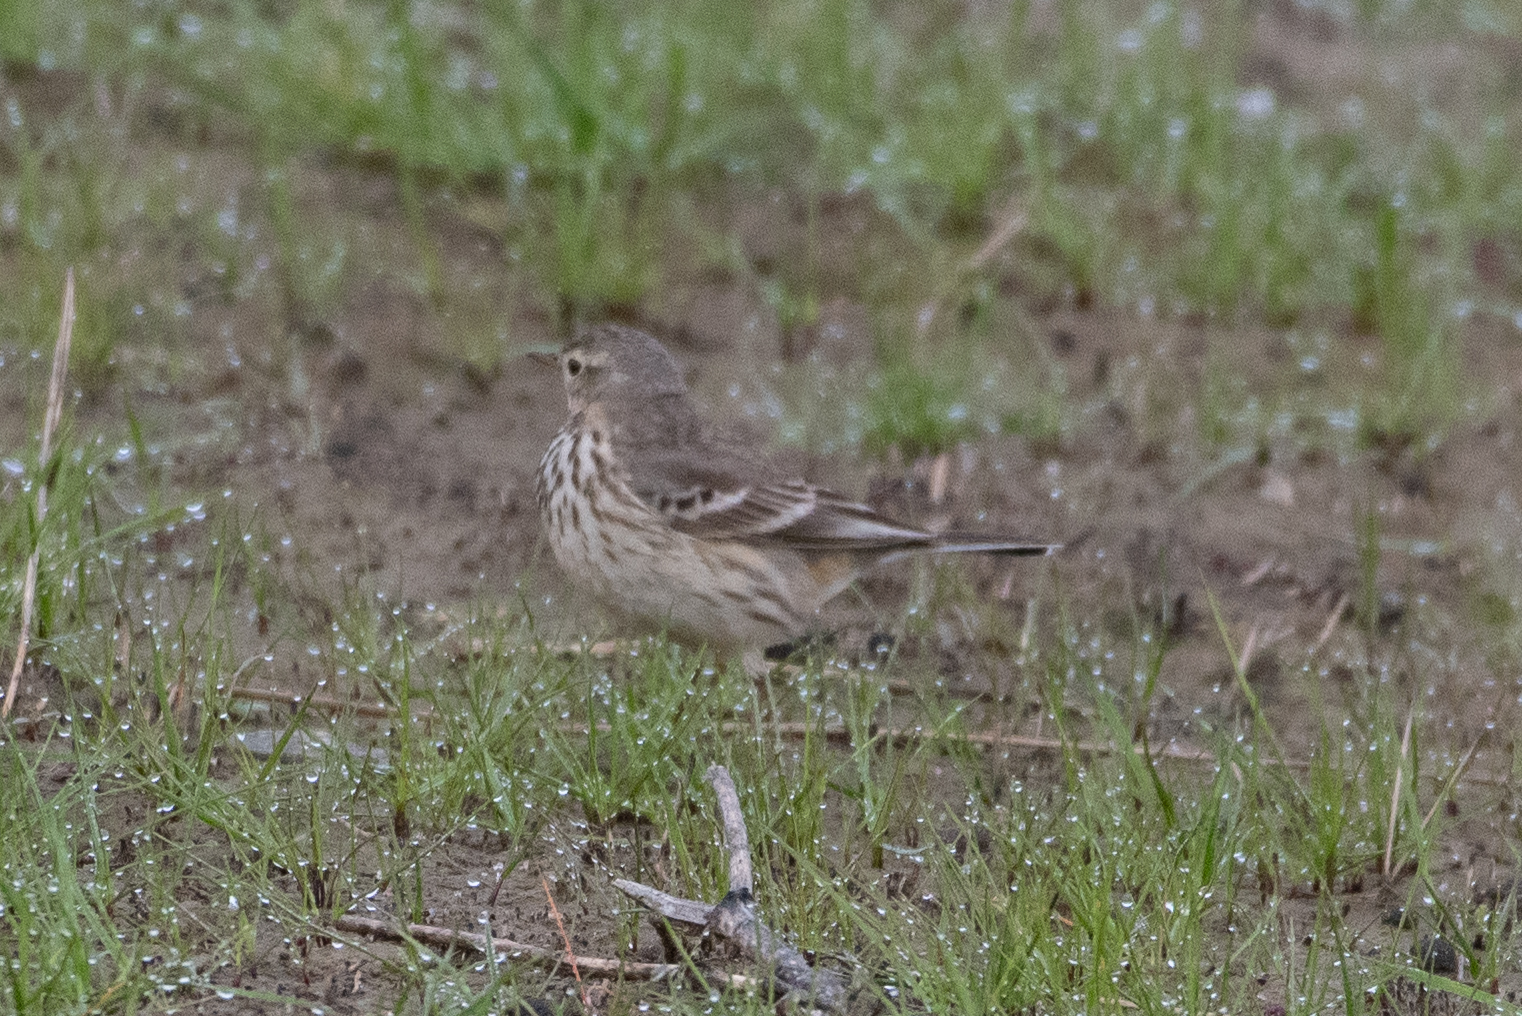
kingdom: Animalia
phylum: Chordata
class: Aves
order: Passeriformes
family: Motacillidae
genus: Anthus
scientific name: Anthus rubescens
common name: Buff-bellied pipit
